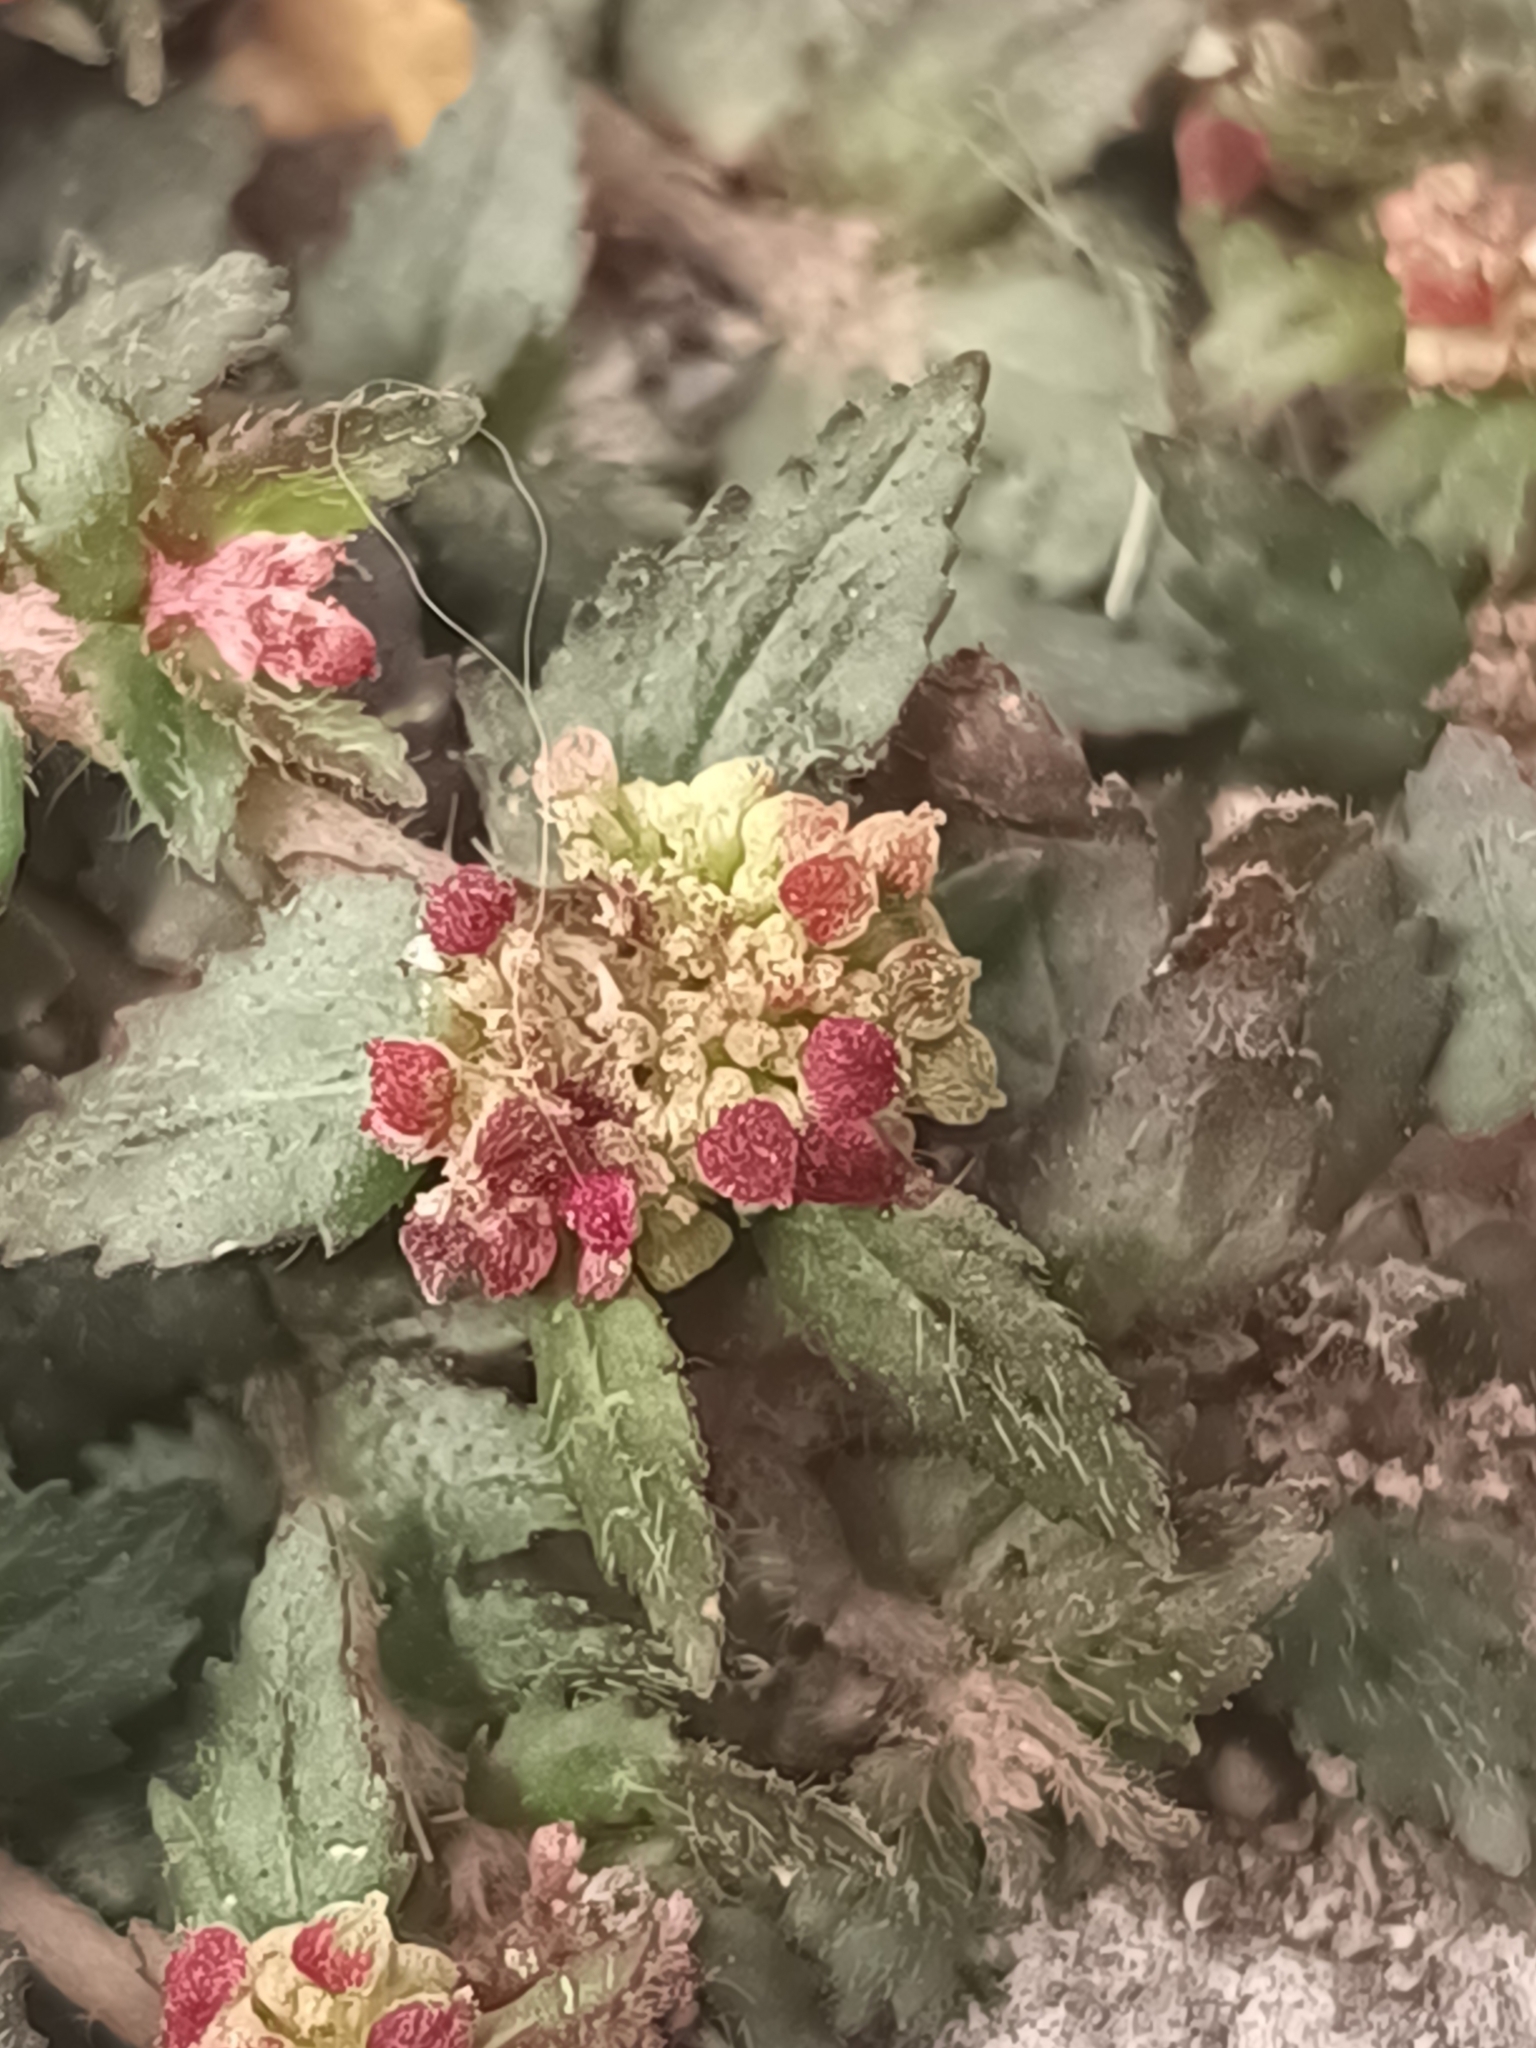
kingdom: Plantae
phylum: Tracheophyta
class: Magnoliopsida
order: Malpighiales
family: Euphorbiaceae
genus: Euphorbia
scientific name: Euphorbia ophthalmica
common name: Florida hammock sandmat
